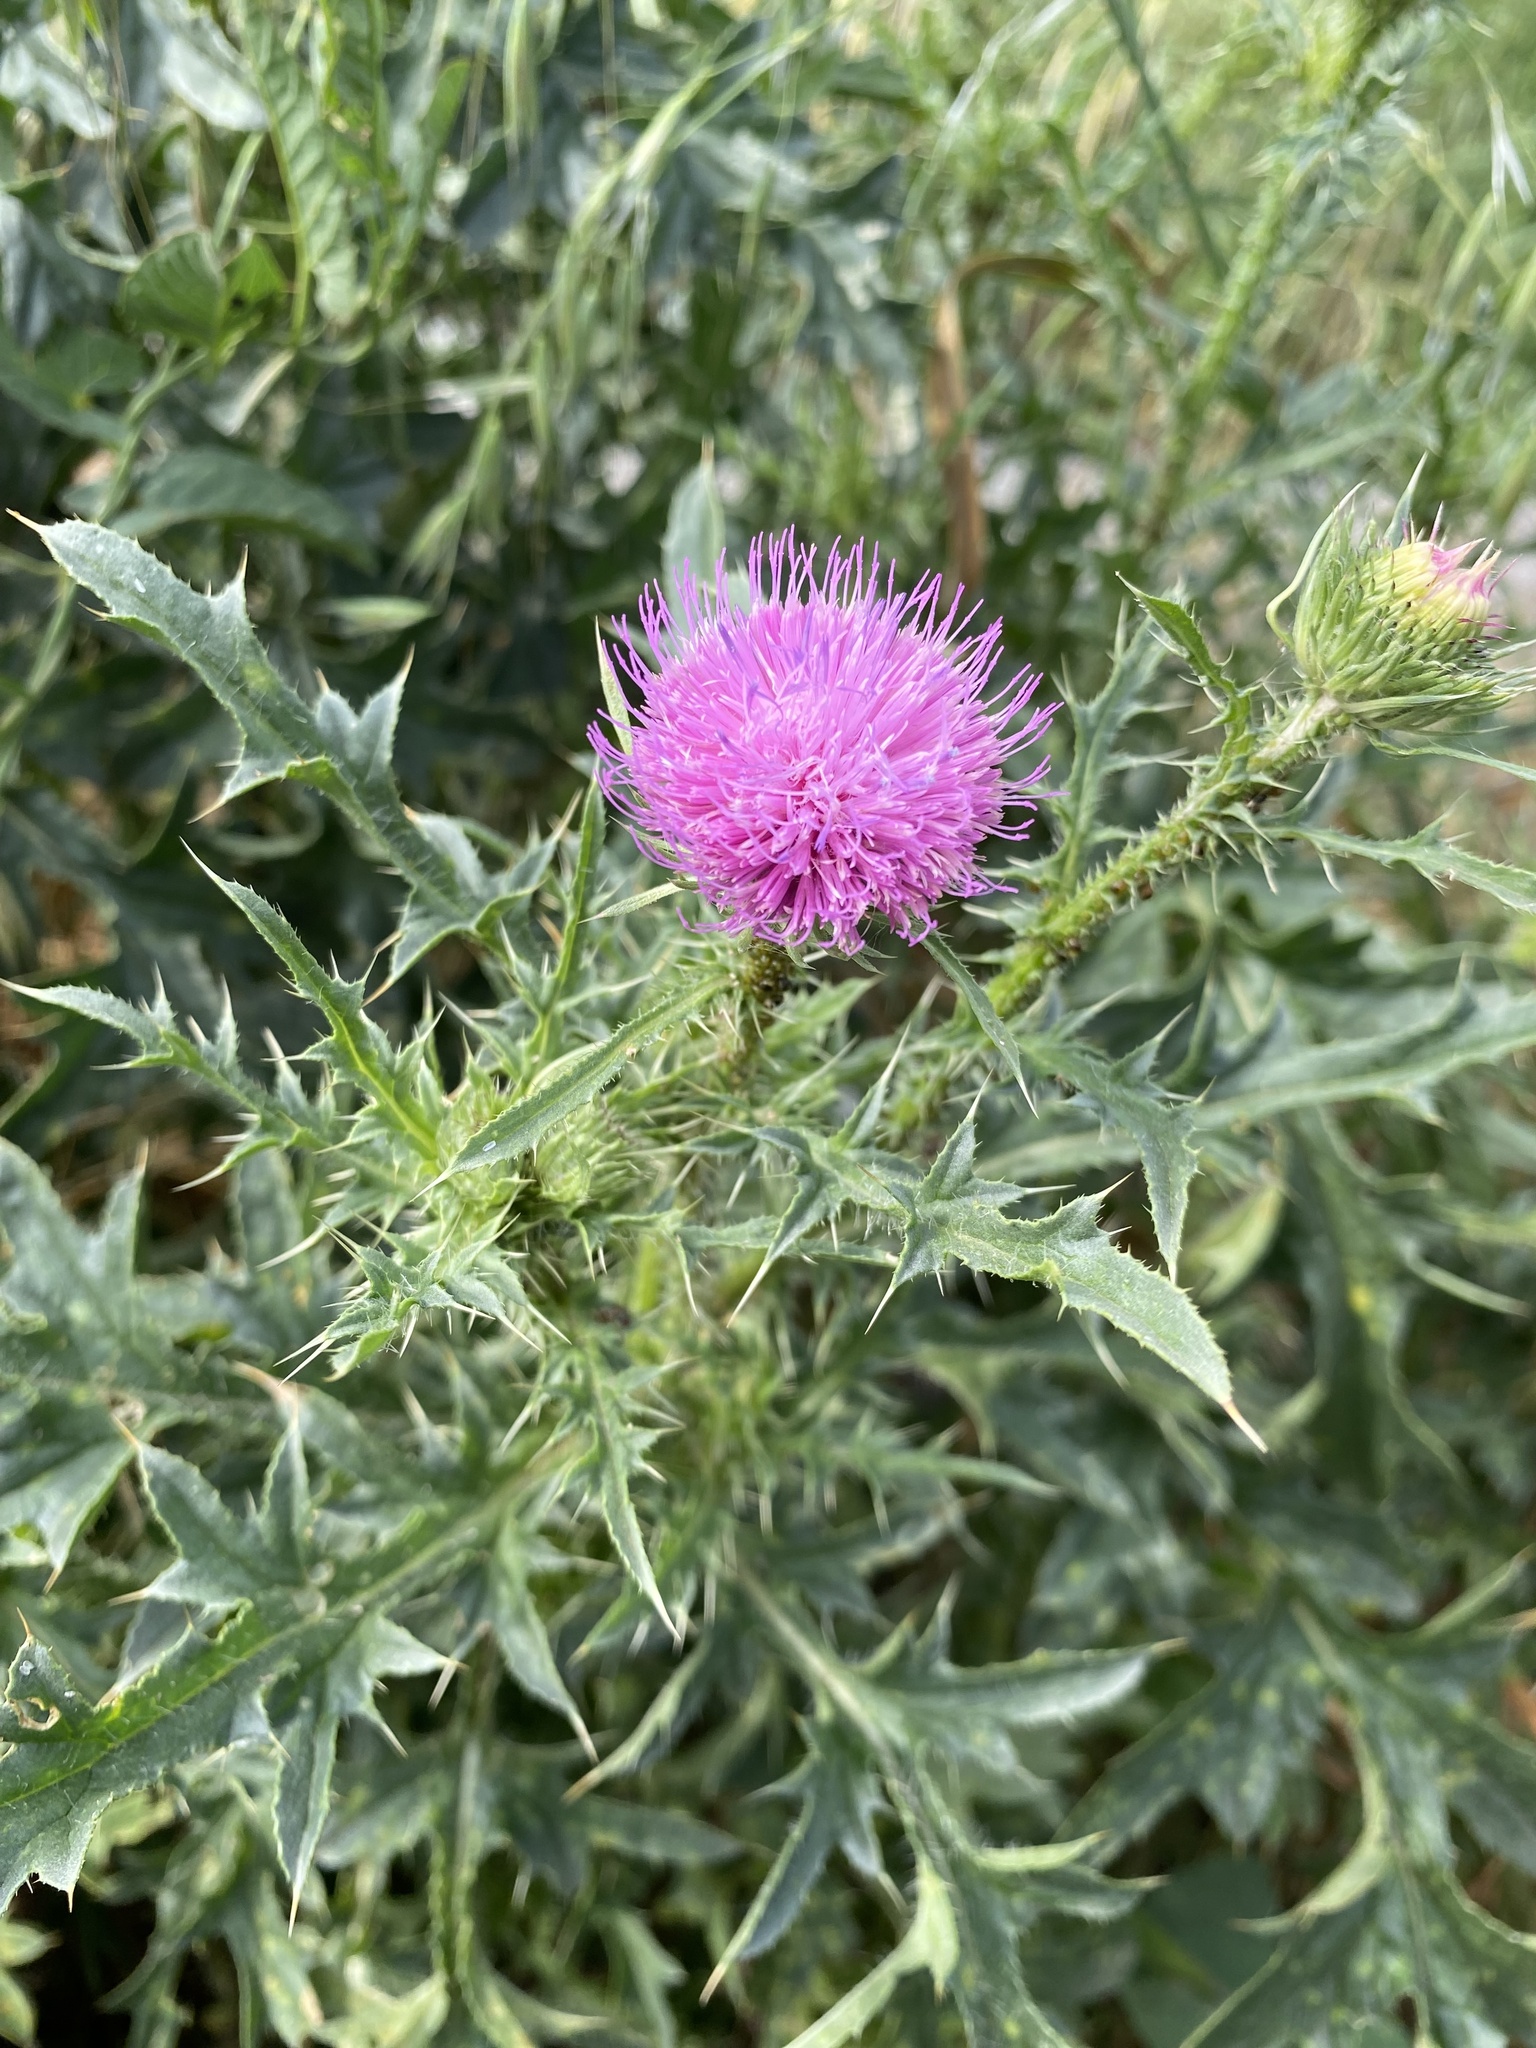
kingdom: Plantae
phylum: Tracheophyta
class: Magnoliopsida
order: Asterales
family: Asteraceae
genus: Carduus
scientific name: Carduus acanthoides
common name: Plumeless thistle
